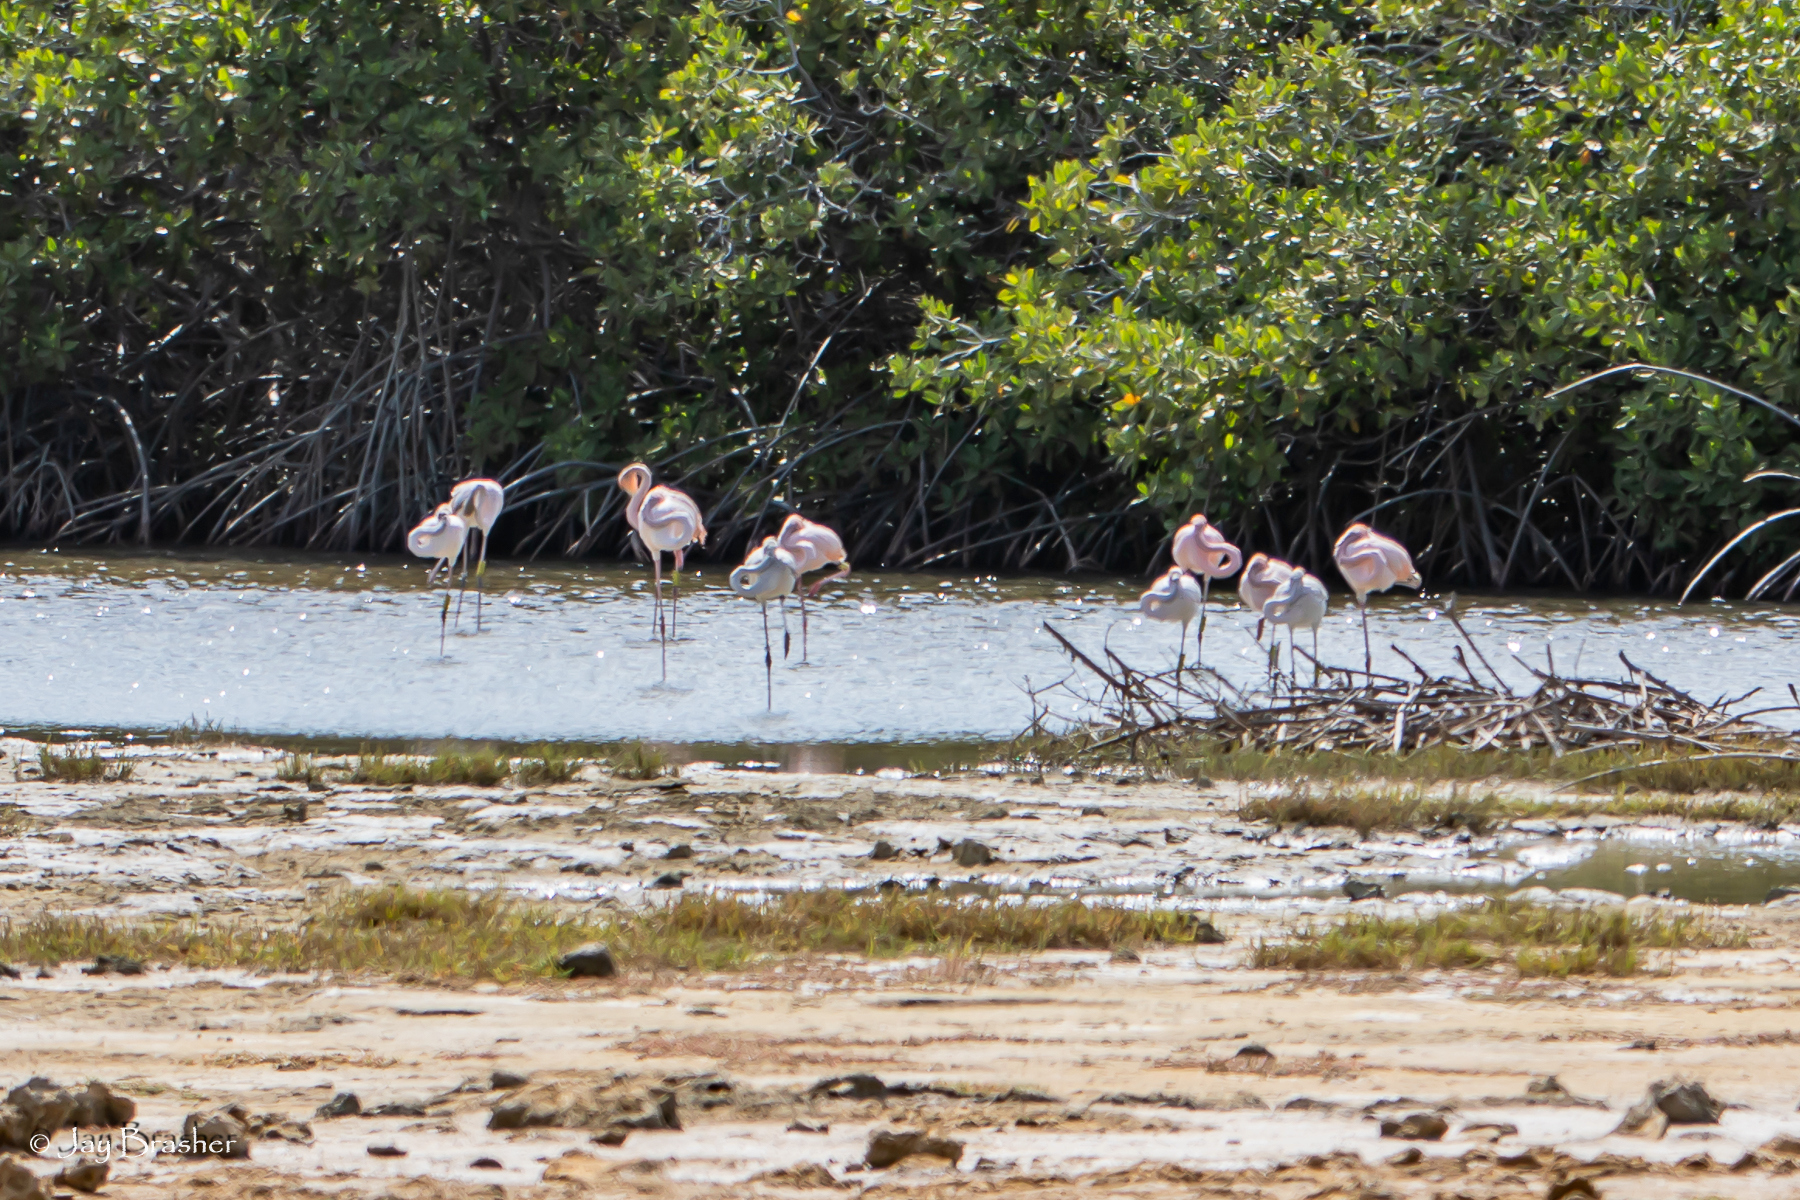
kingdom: Animalia
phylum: Chordata
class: Aves
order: Phoenicopteriformes
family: Phoenicopteridae
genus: Phoenicopterus
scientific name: Phoenicopterus ruber
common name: American flamingo
